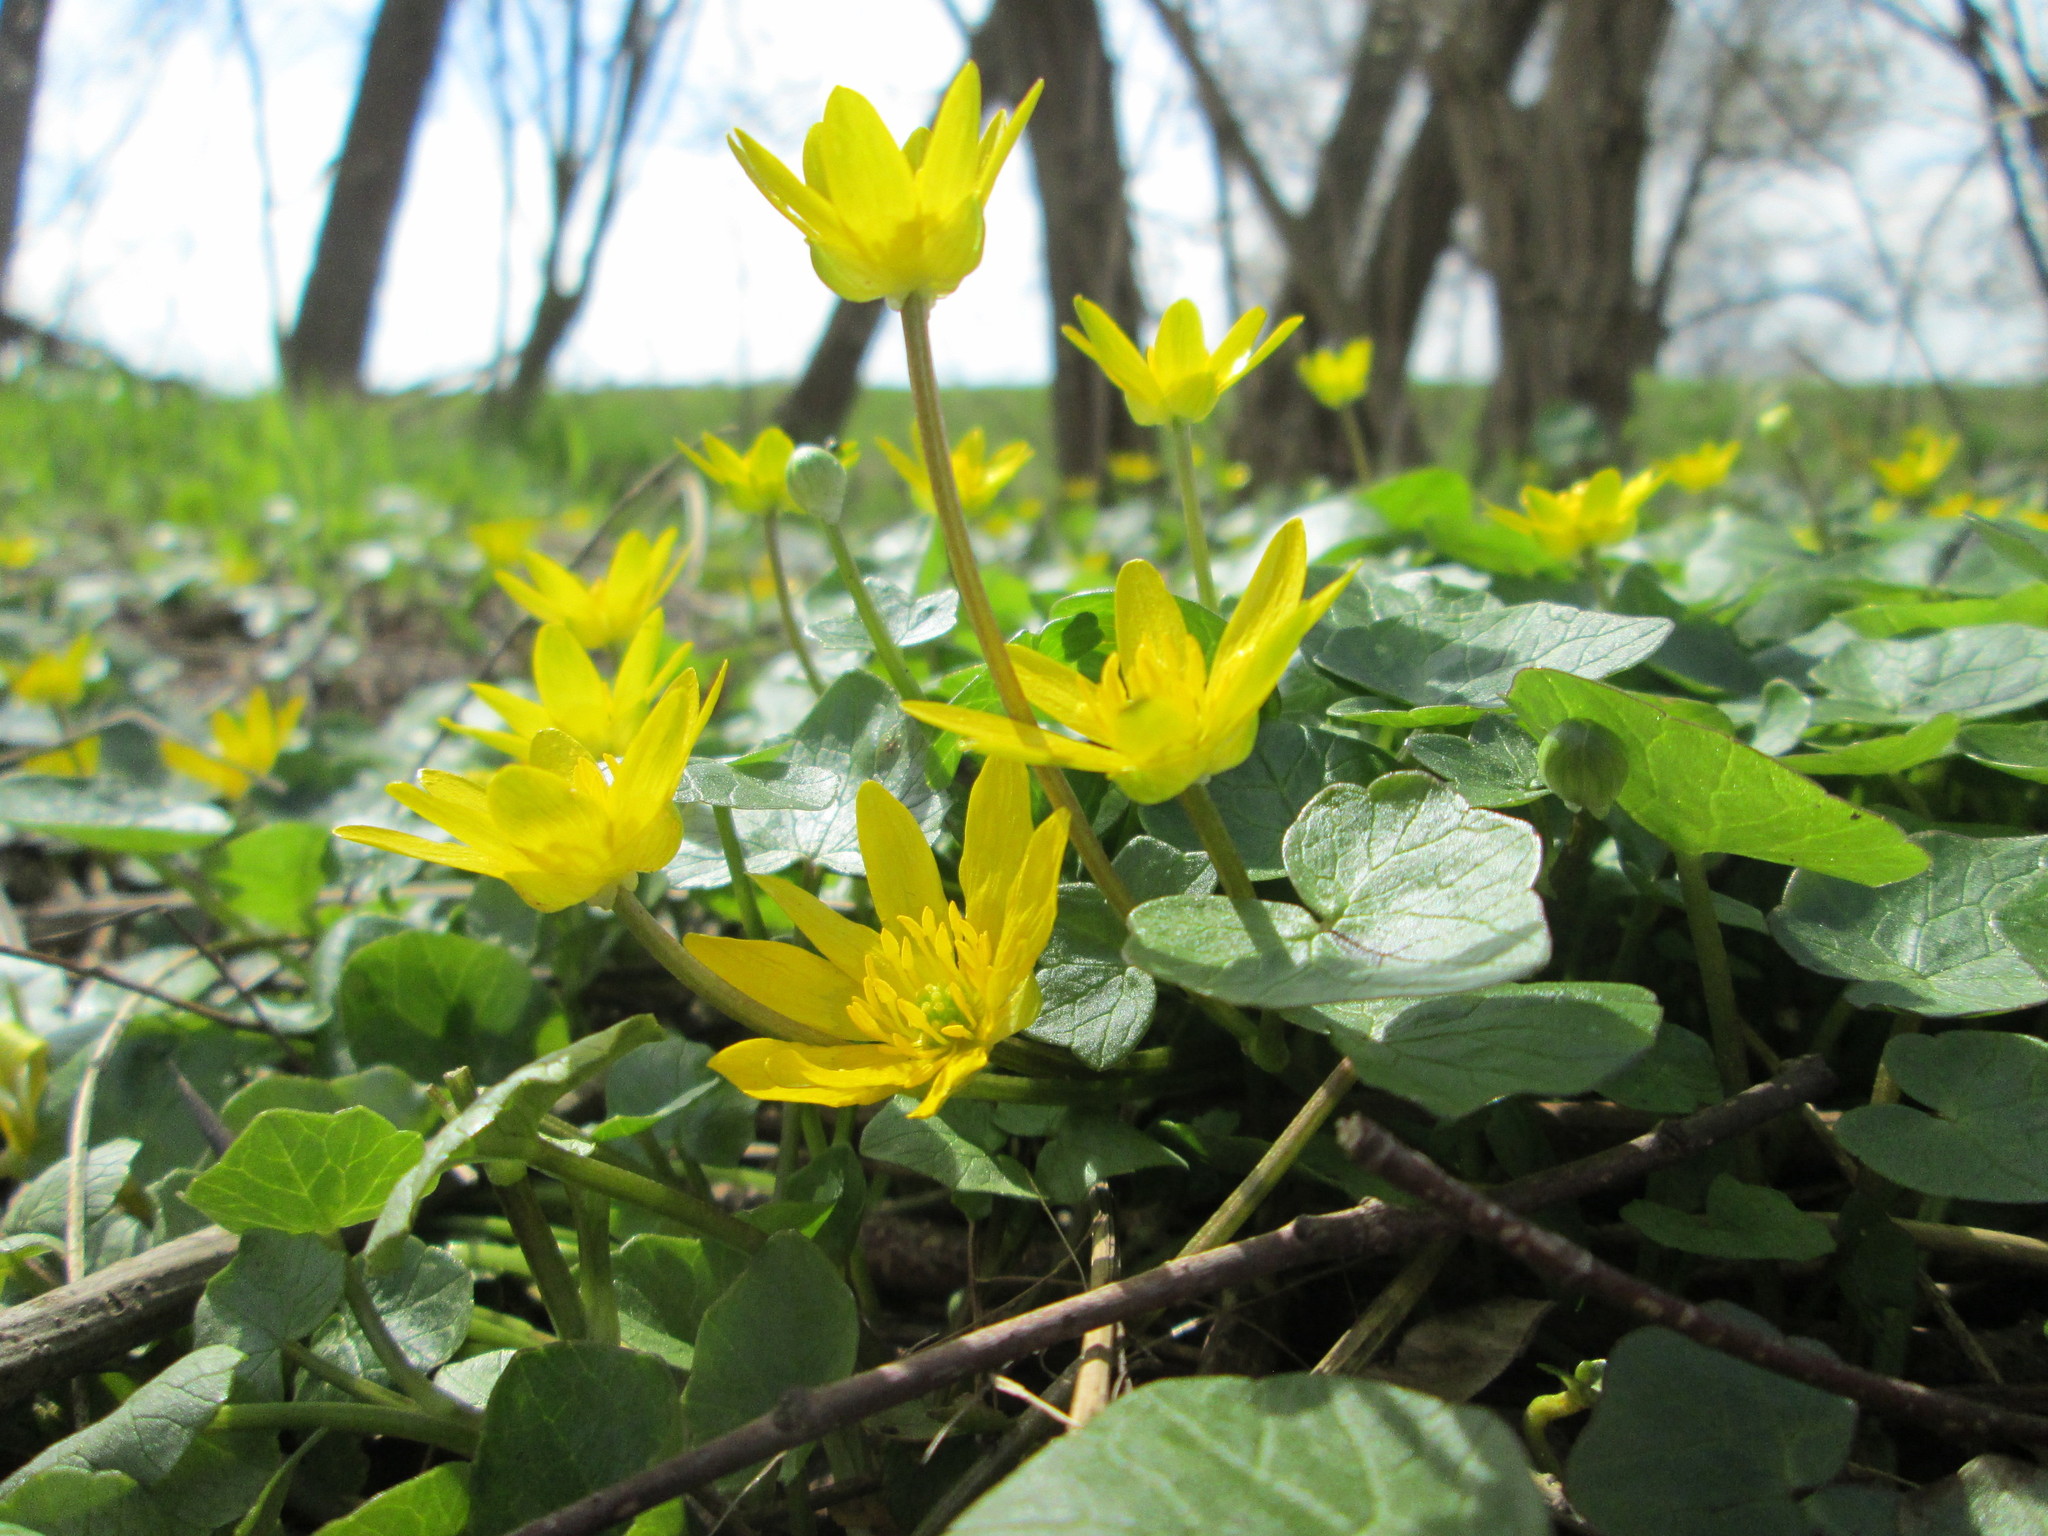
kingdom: Plantae
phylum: Tracheophyta
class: Magnoliopsida
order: Ranunculales
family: Ranunculaceae
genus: Ficaria
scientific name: Ficaria verna
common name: Lesser celandine
